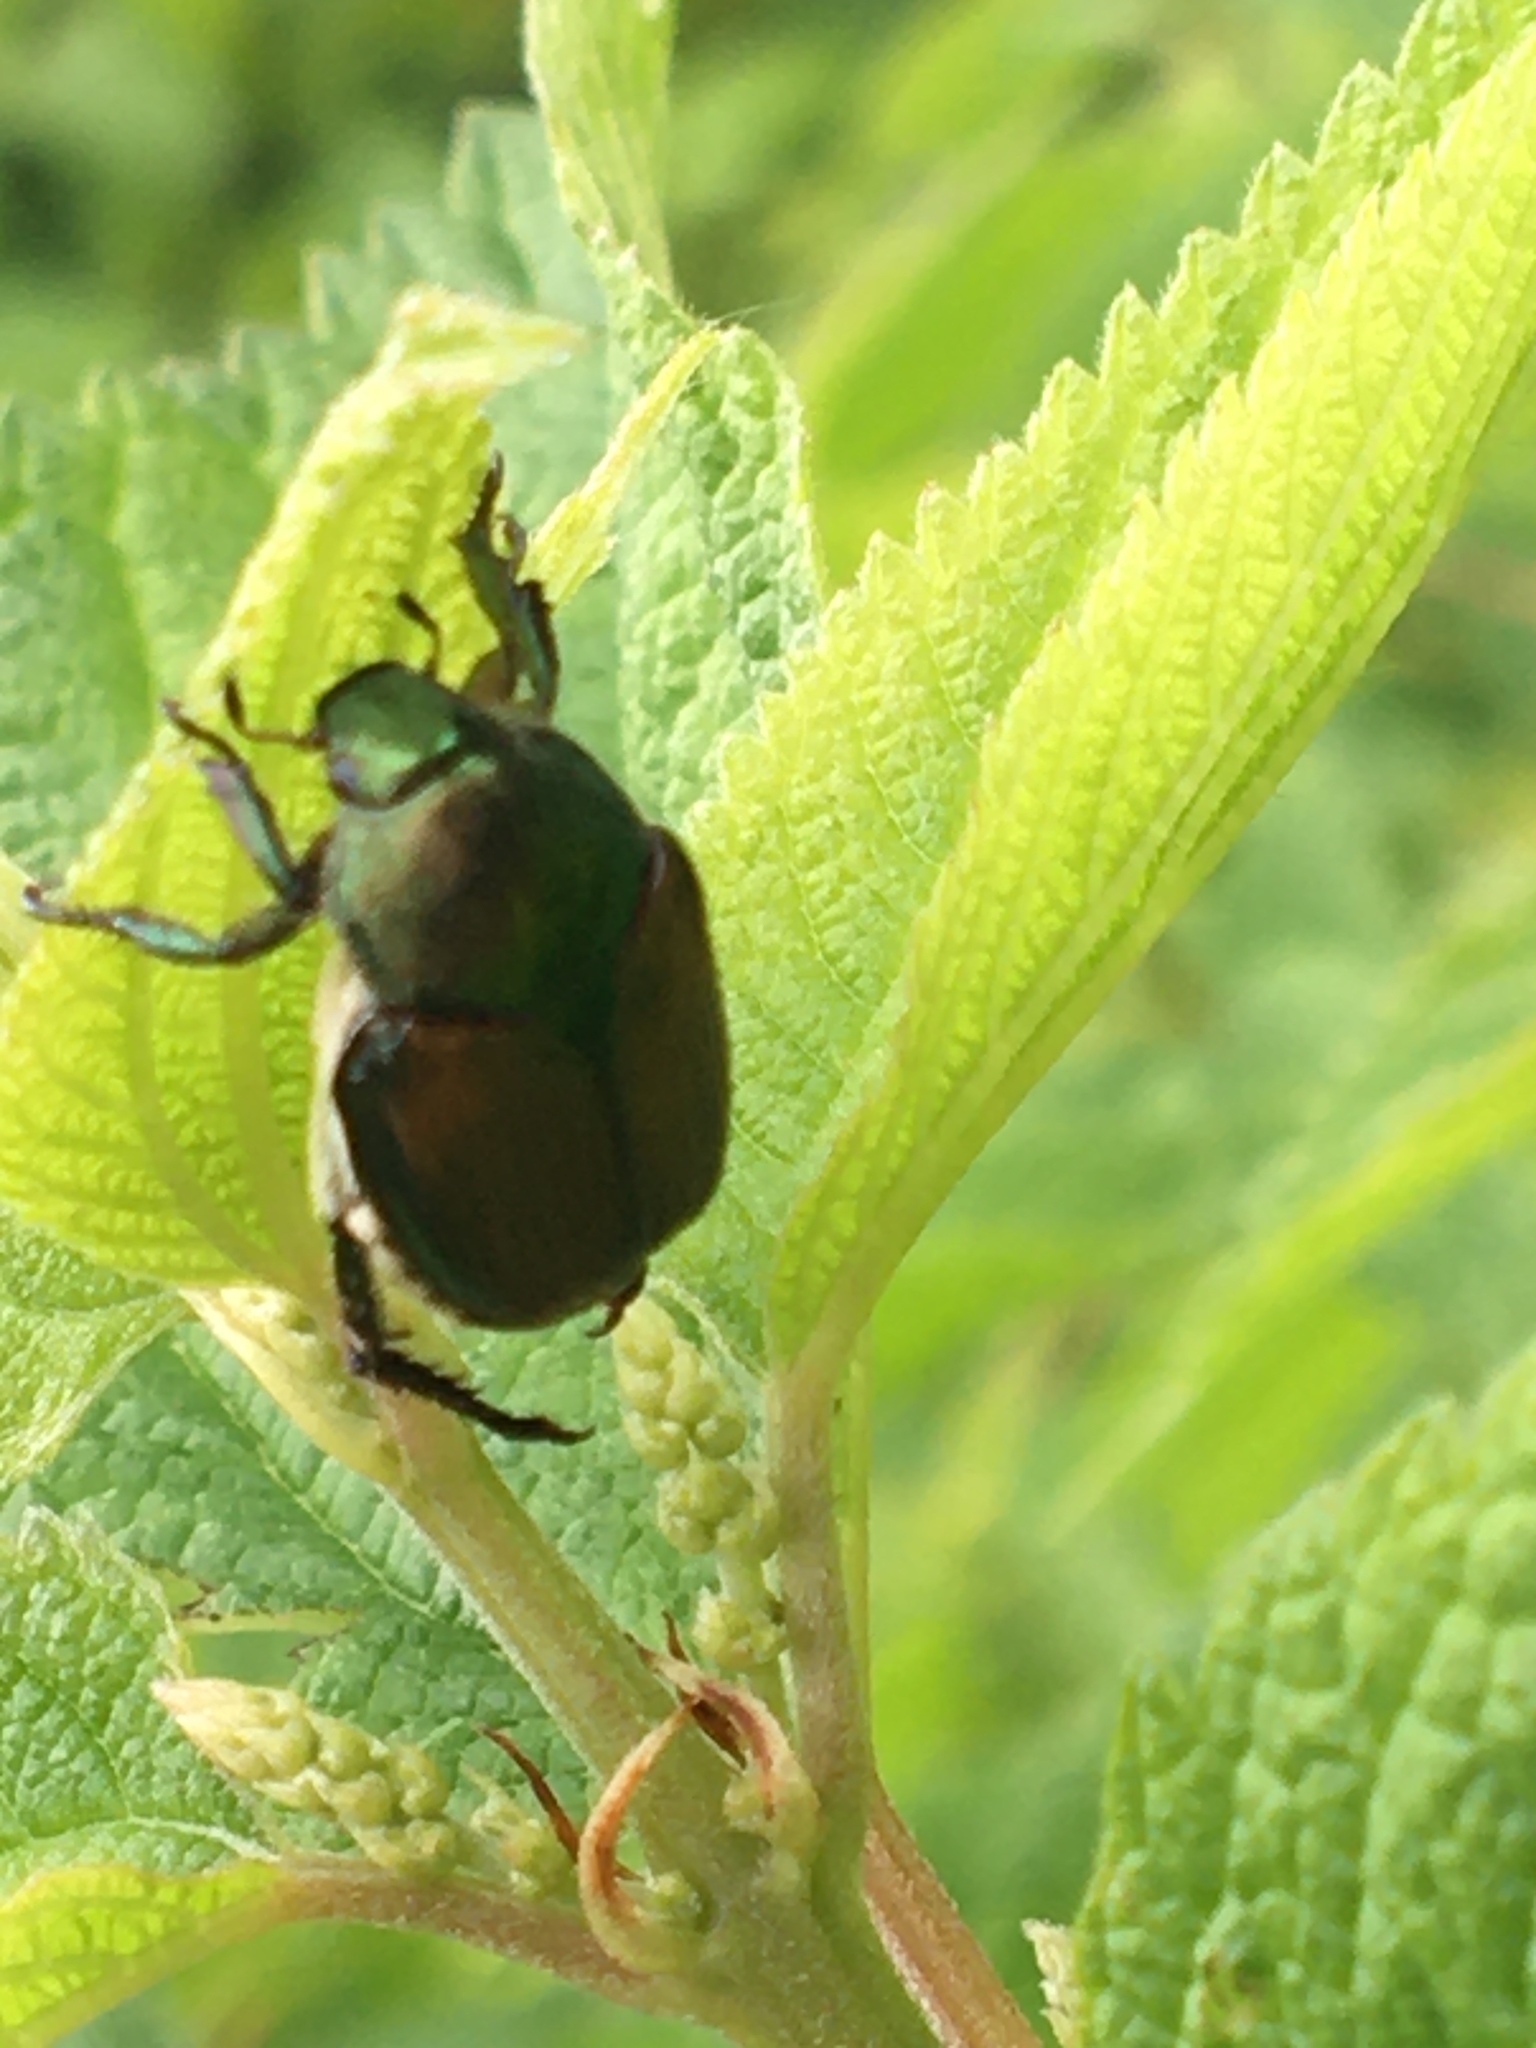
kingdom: Animalia
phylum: Arthropoda
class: Insecta
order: Coleoptera
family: Scarabaeidae
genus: Popillia
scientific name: Popillia japonica
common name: Japanese beetle
